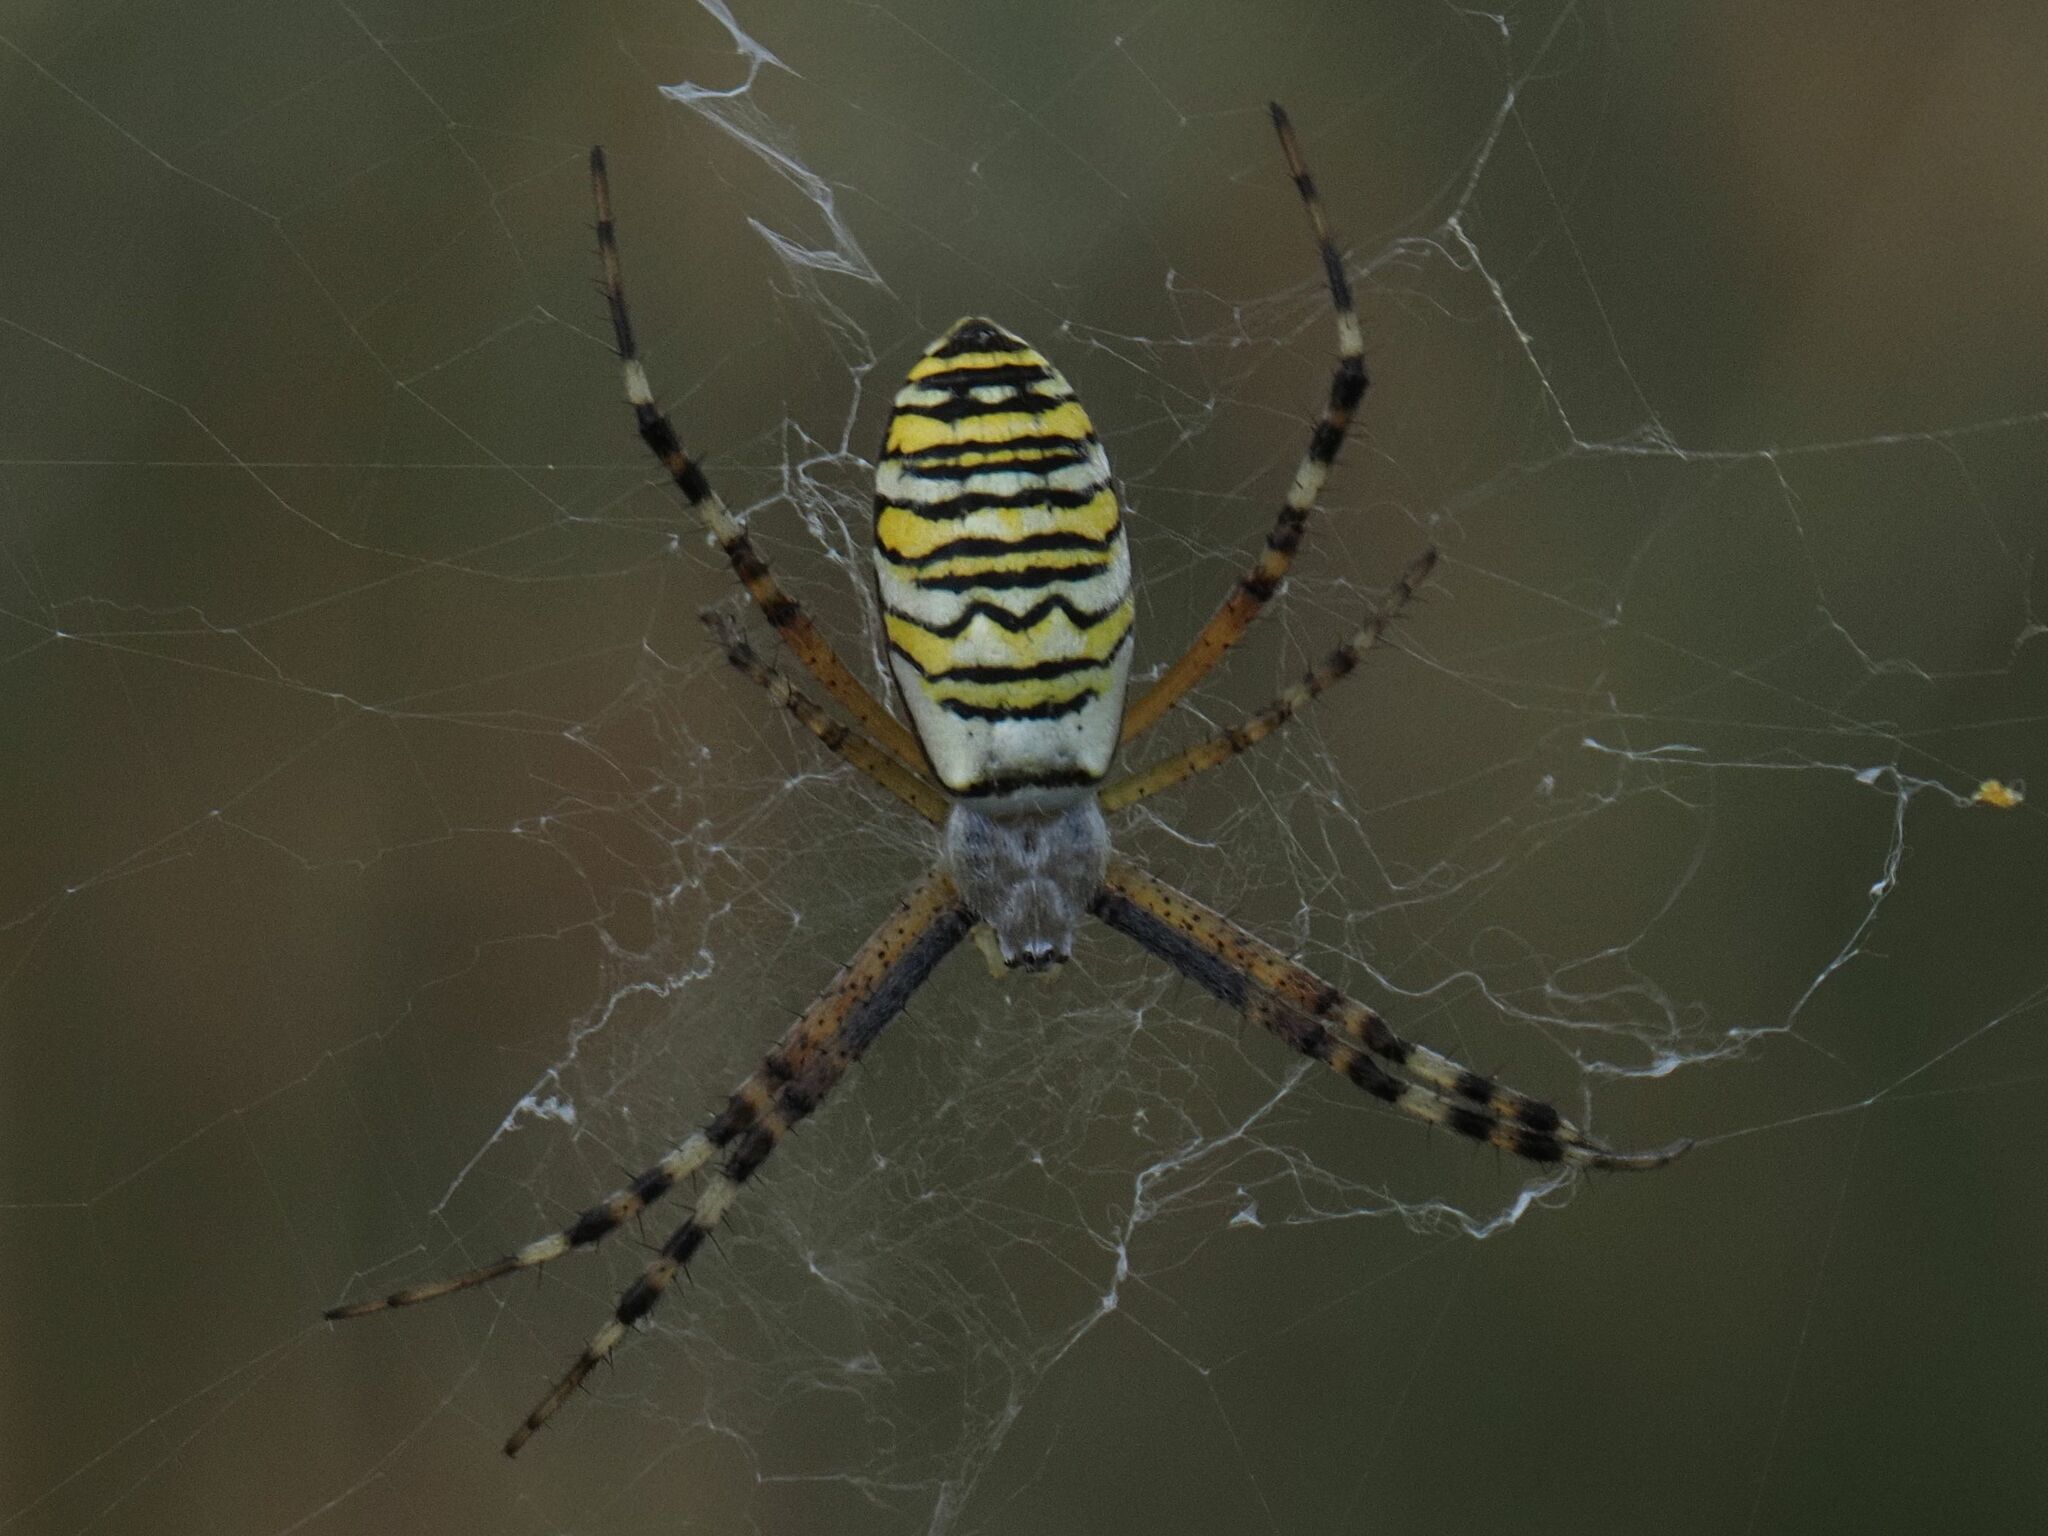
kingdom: Animalia
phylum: Arthropoda
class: Arachnida
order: Araneae
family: Araneidae
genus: Argiope
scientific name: Argiope bruennichi
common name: Wasp spider
